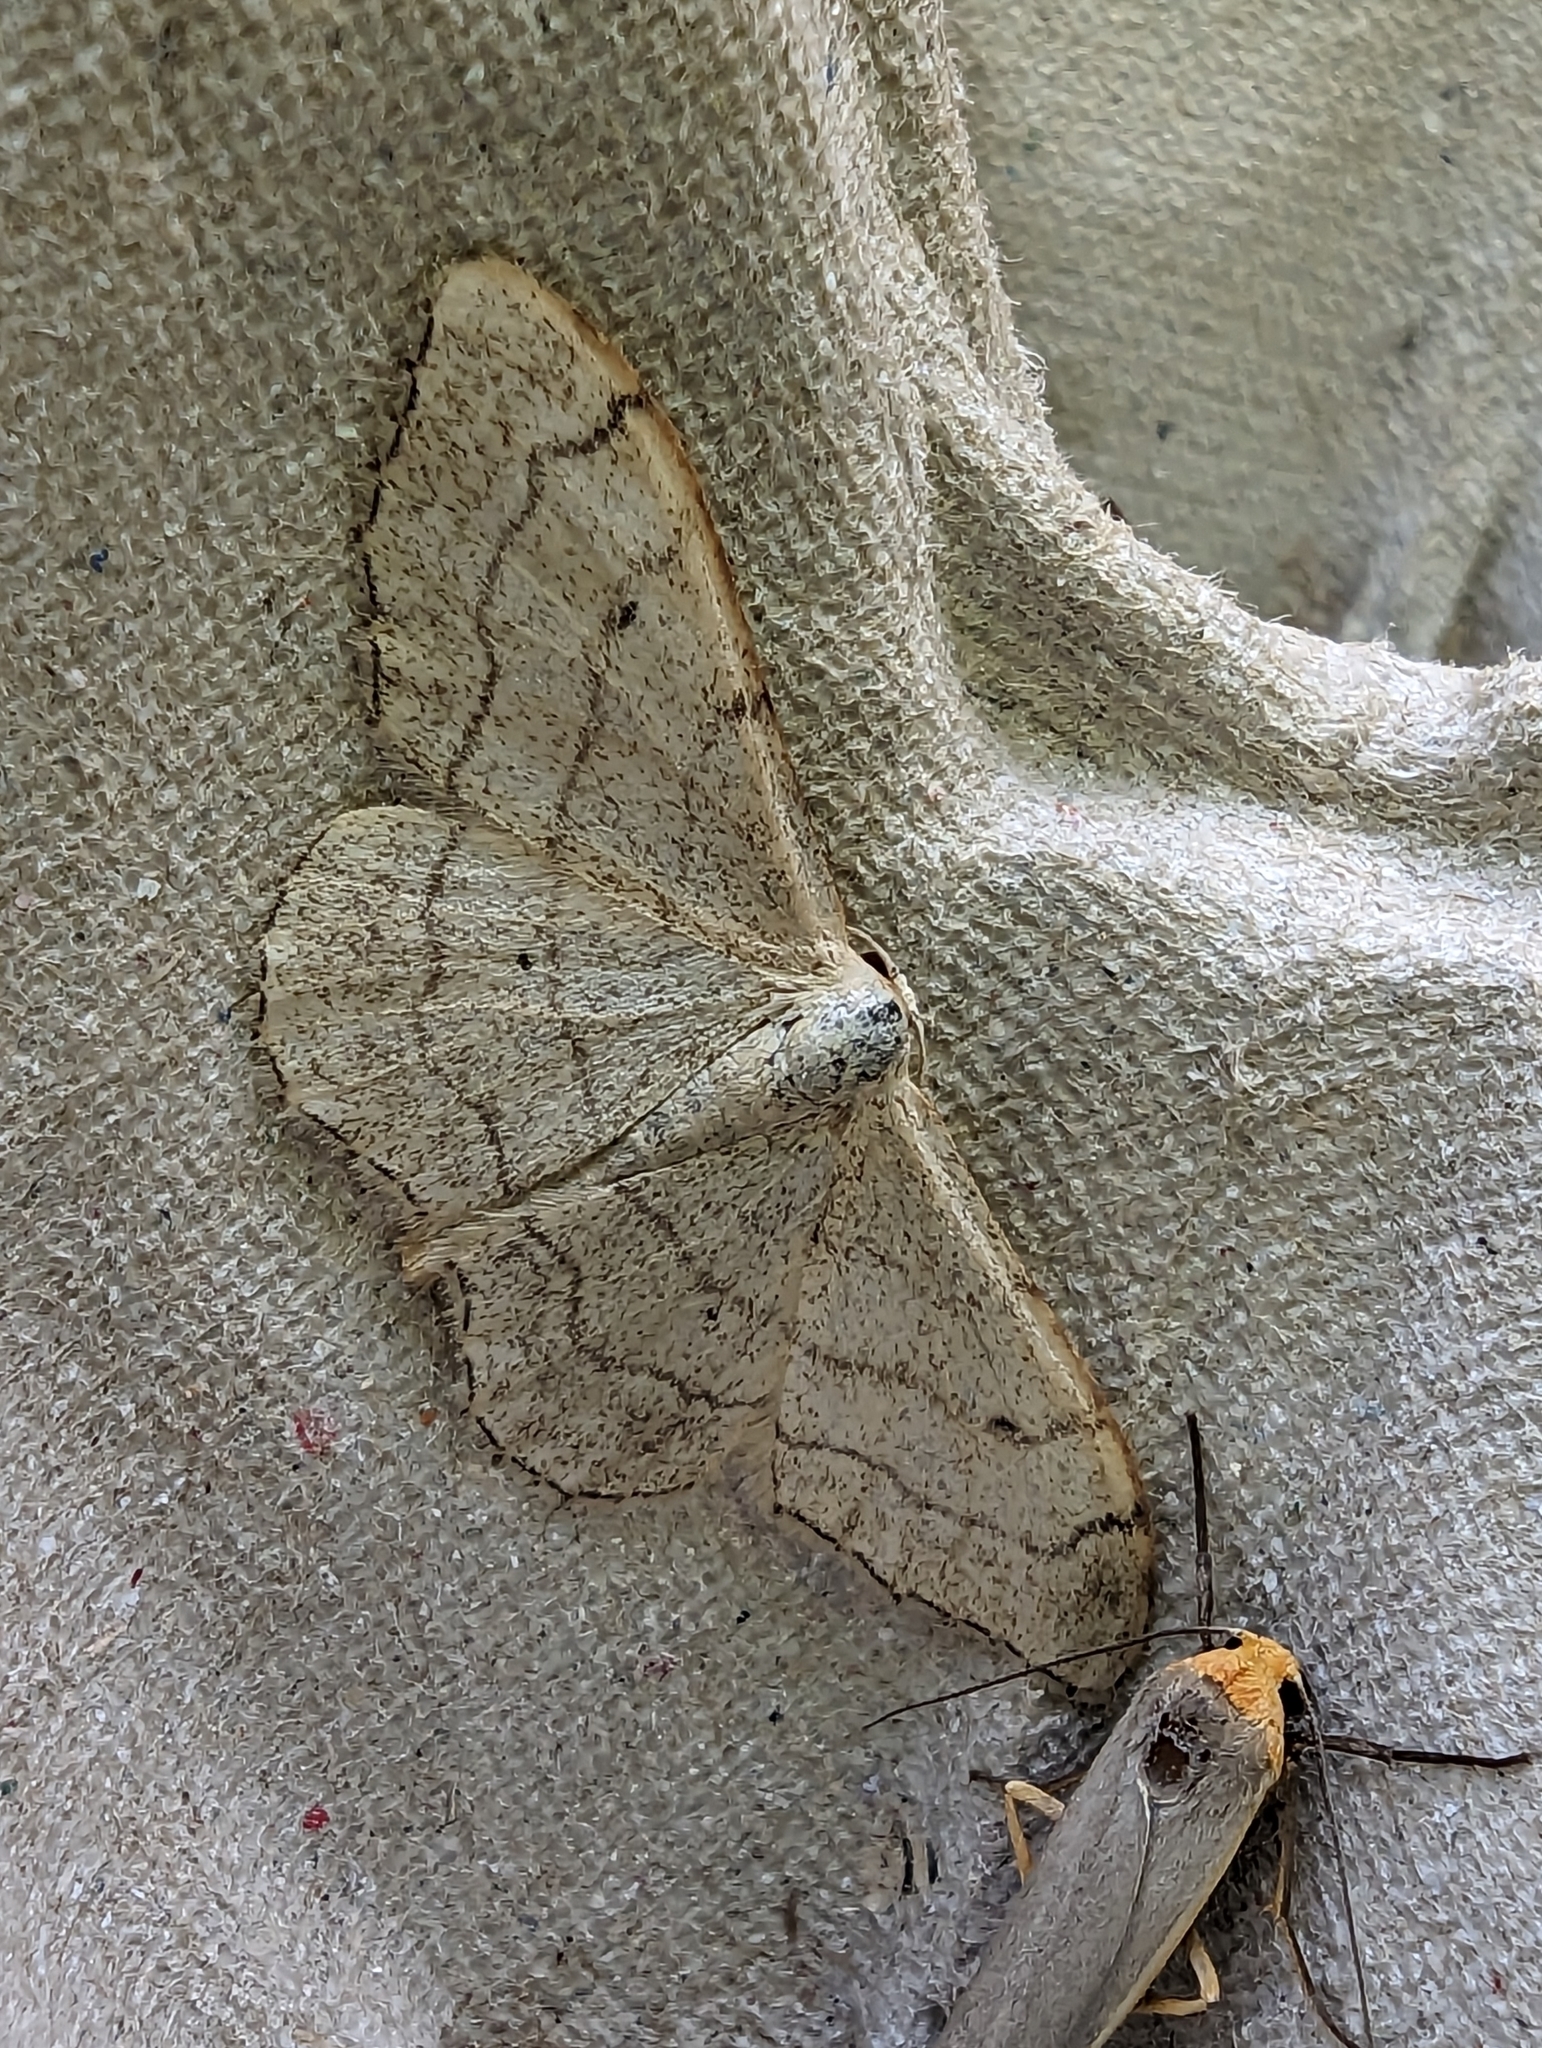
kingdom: Animalia
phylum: Arthropoda
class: Insecta
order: Lepidoptera
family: Geometridae
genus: Idaea
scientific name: Idaea aversata
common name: Riband wave
